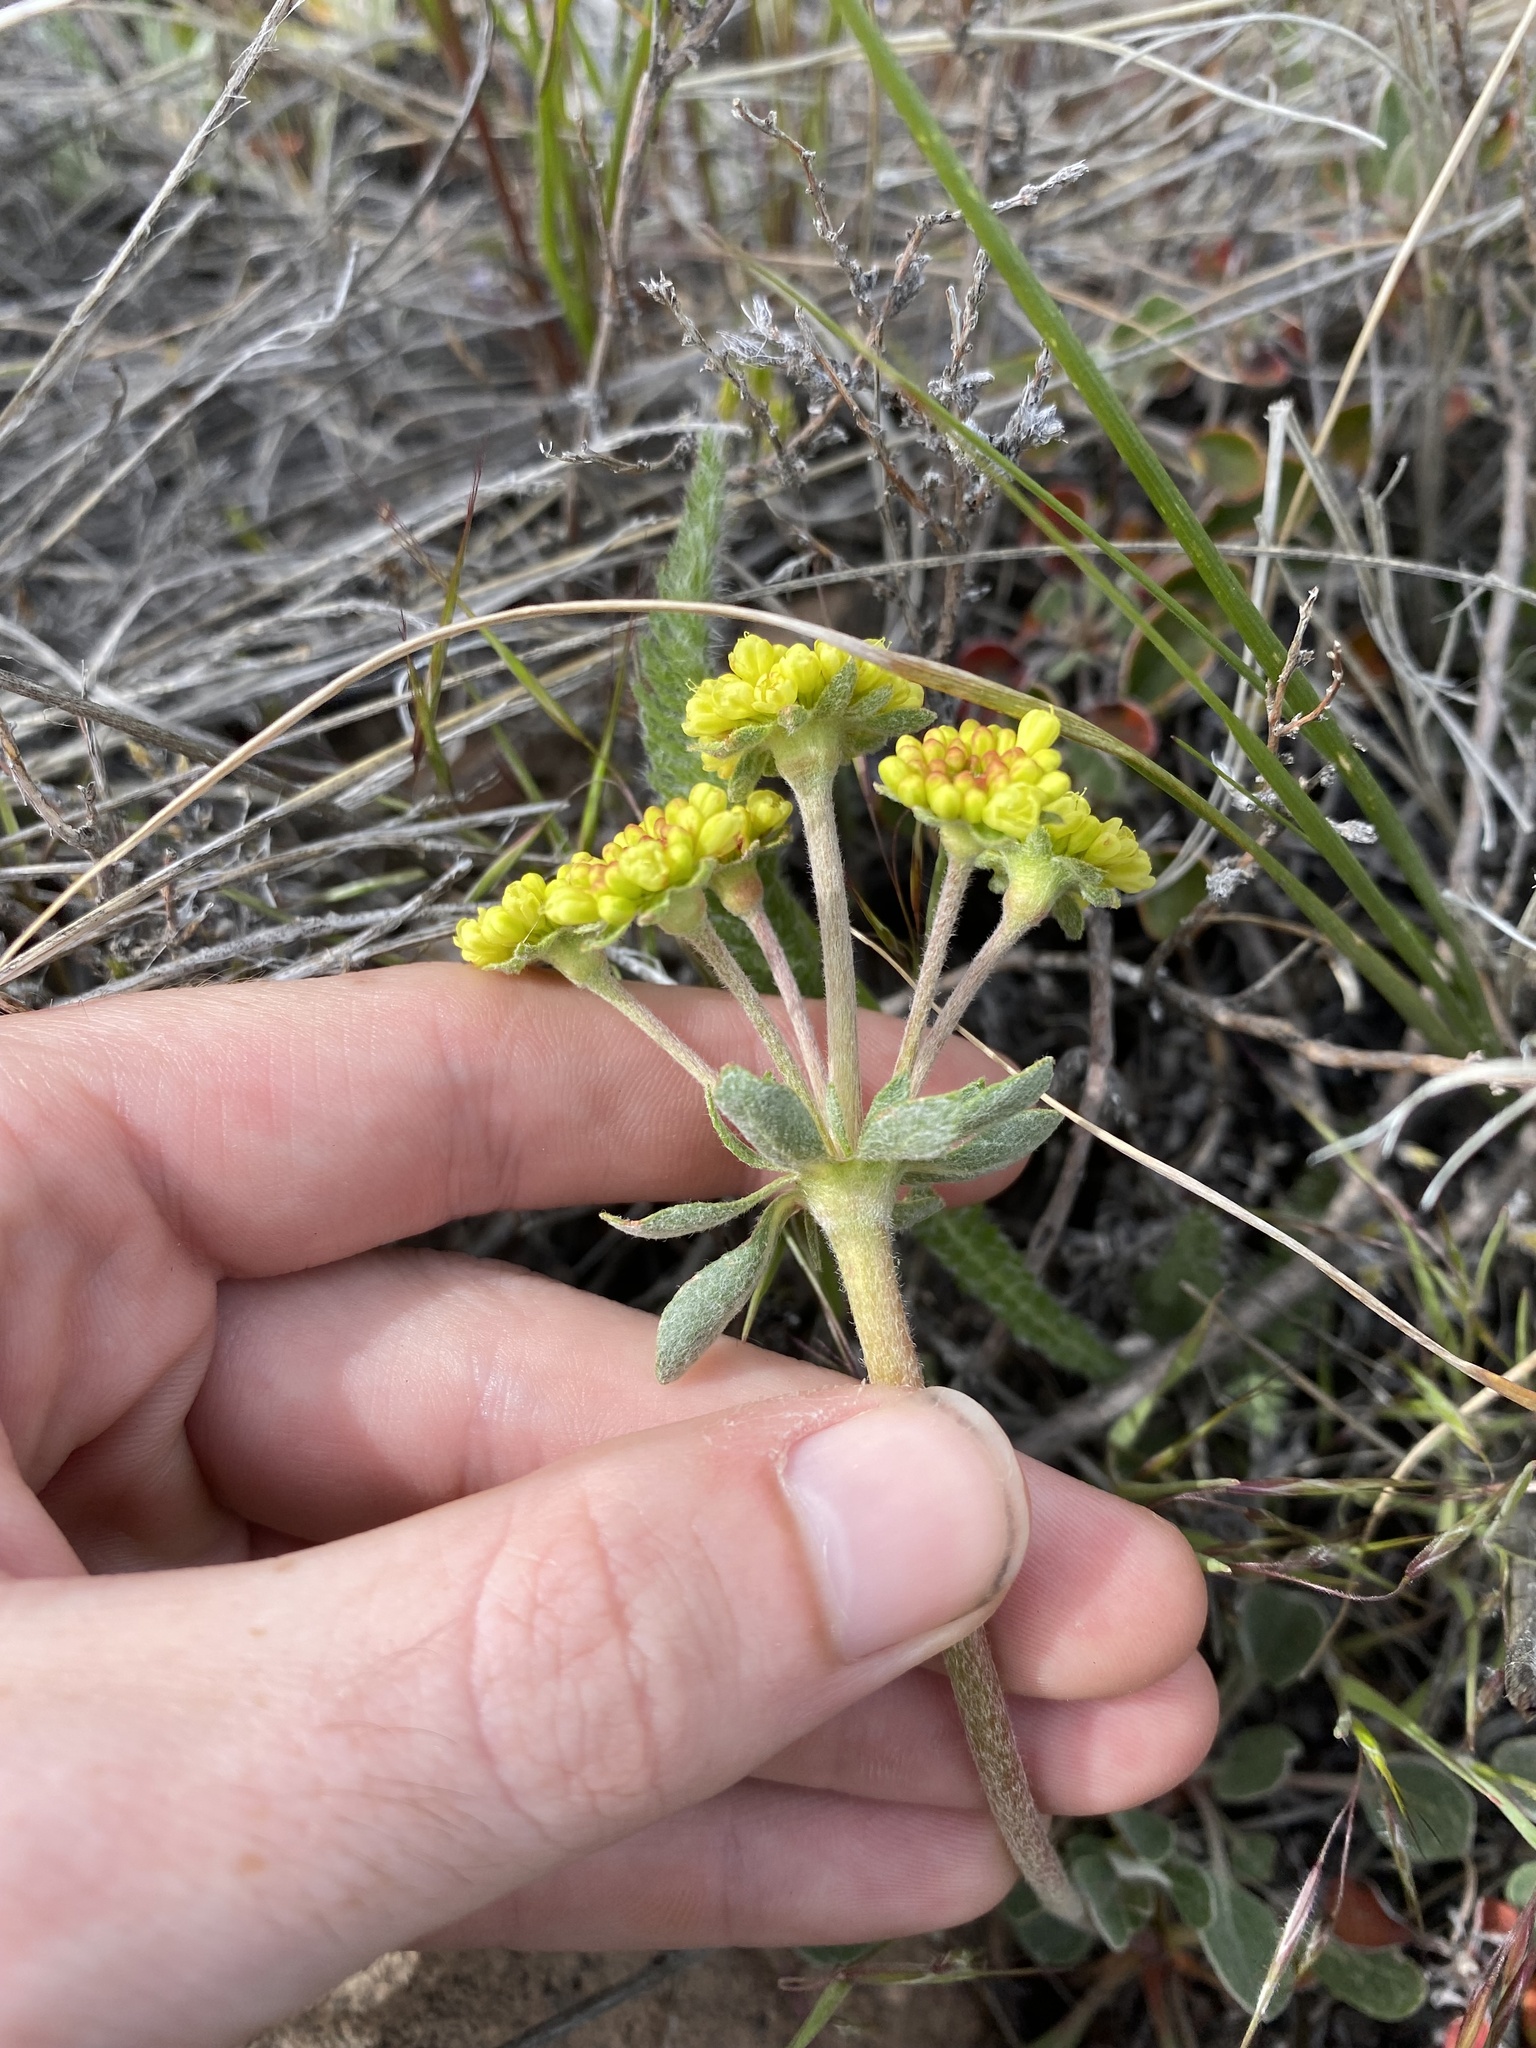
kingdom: Plantae
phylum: Tracheophyta
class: Magnoliopsida
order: Caryophyllales
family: Polygonaceae
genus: Eriogonum
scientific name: Eriogonum umbellatum
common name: Sulfur-buckwheat
